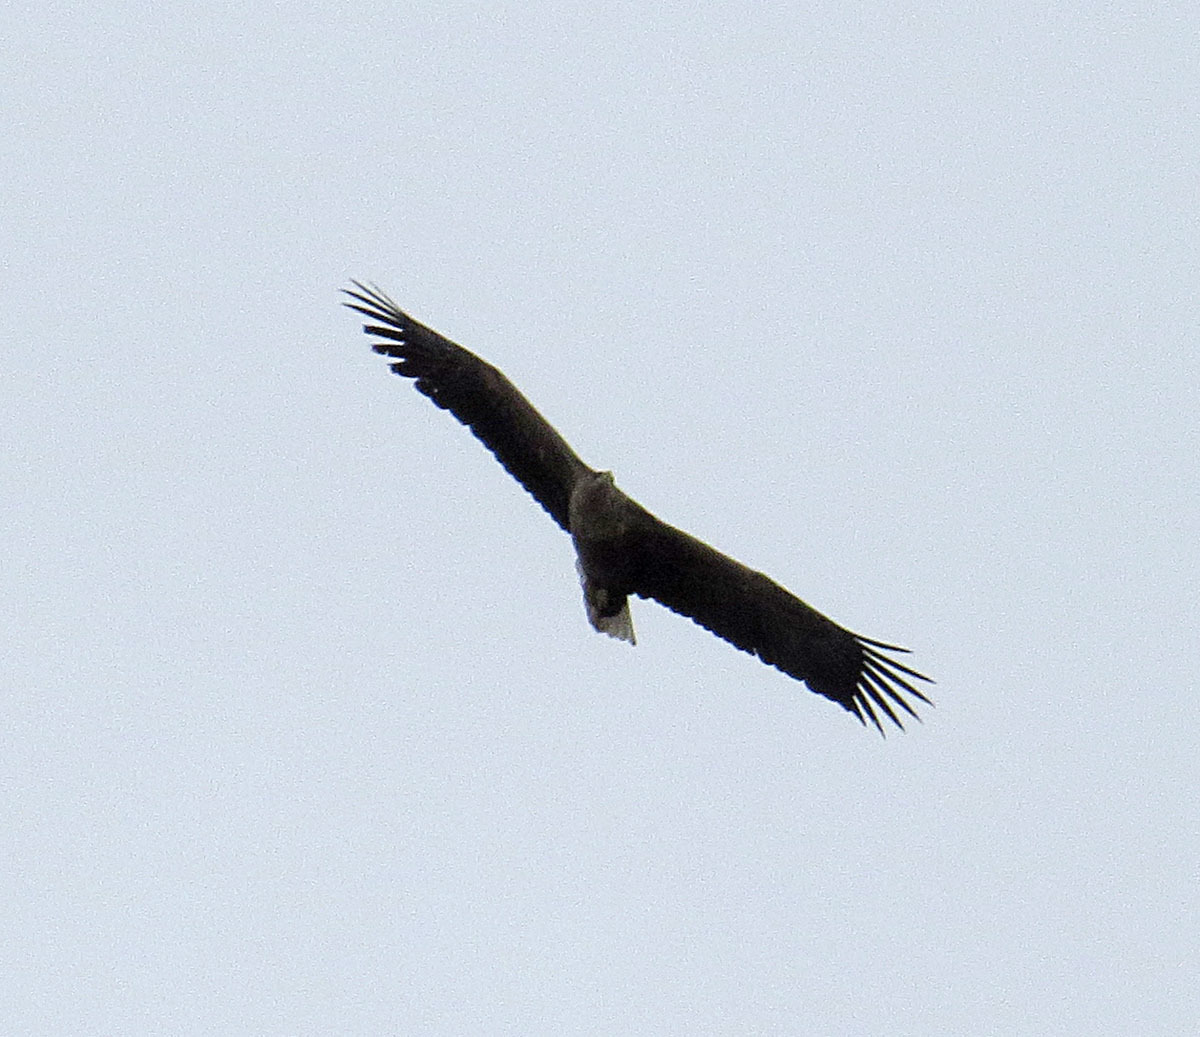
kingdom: Animalia
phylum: Chordata
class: Aves
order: Accipitriformes
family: Accipitridae
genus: Haliaeetus
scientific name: Haliaeetus albicilla
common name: White-tailed eagle
